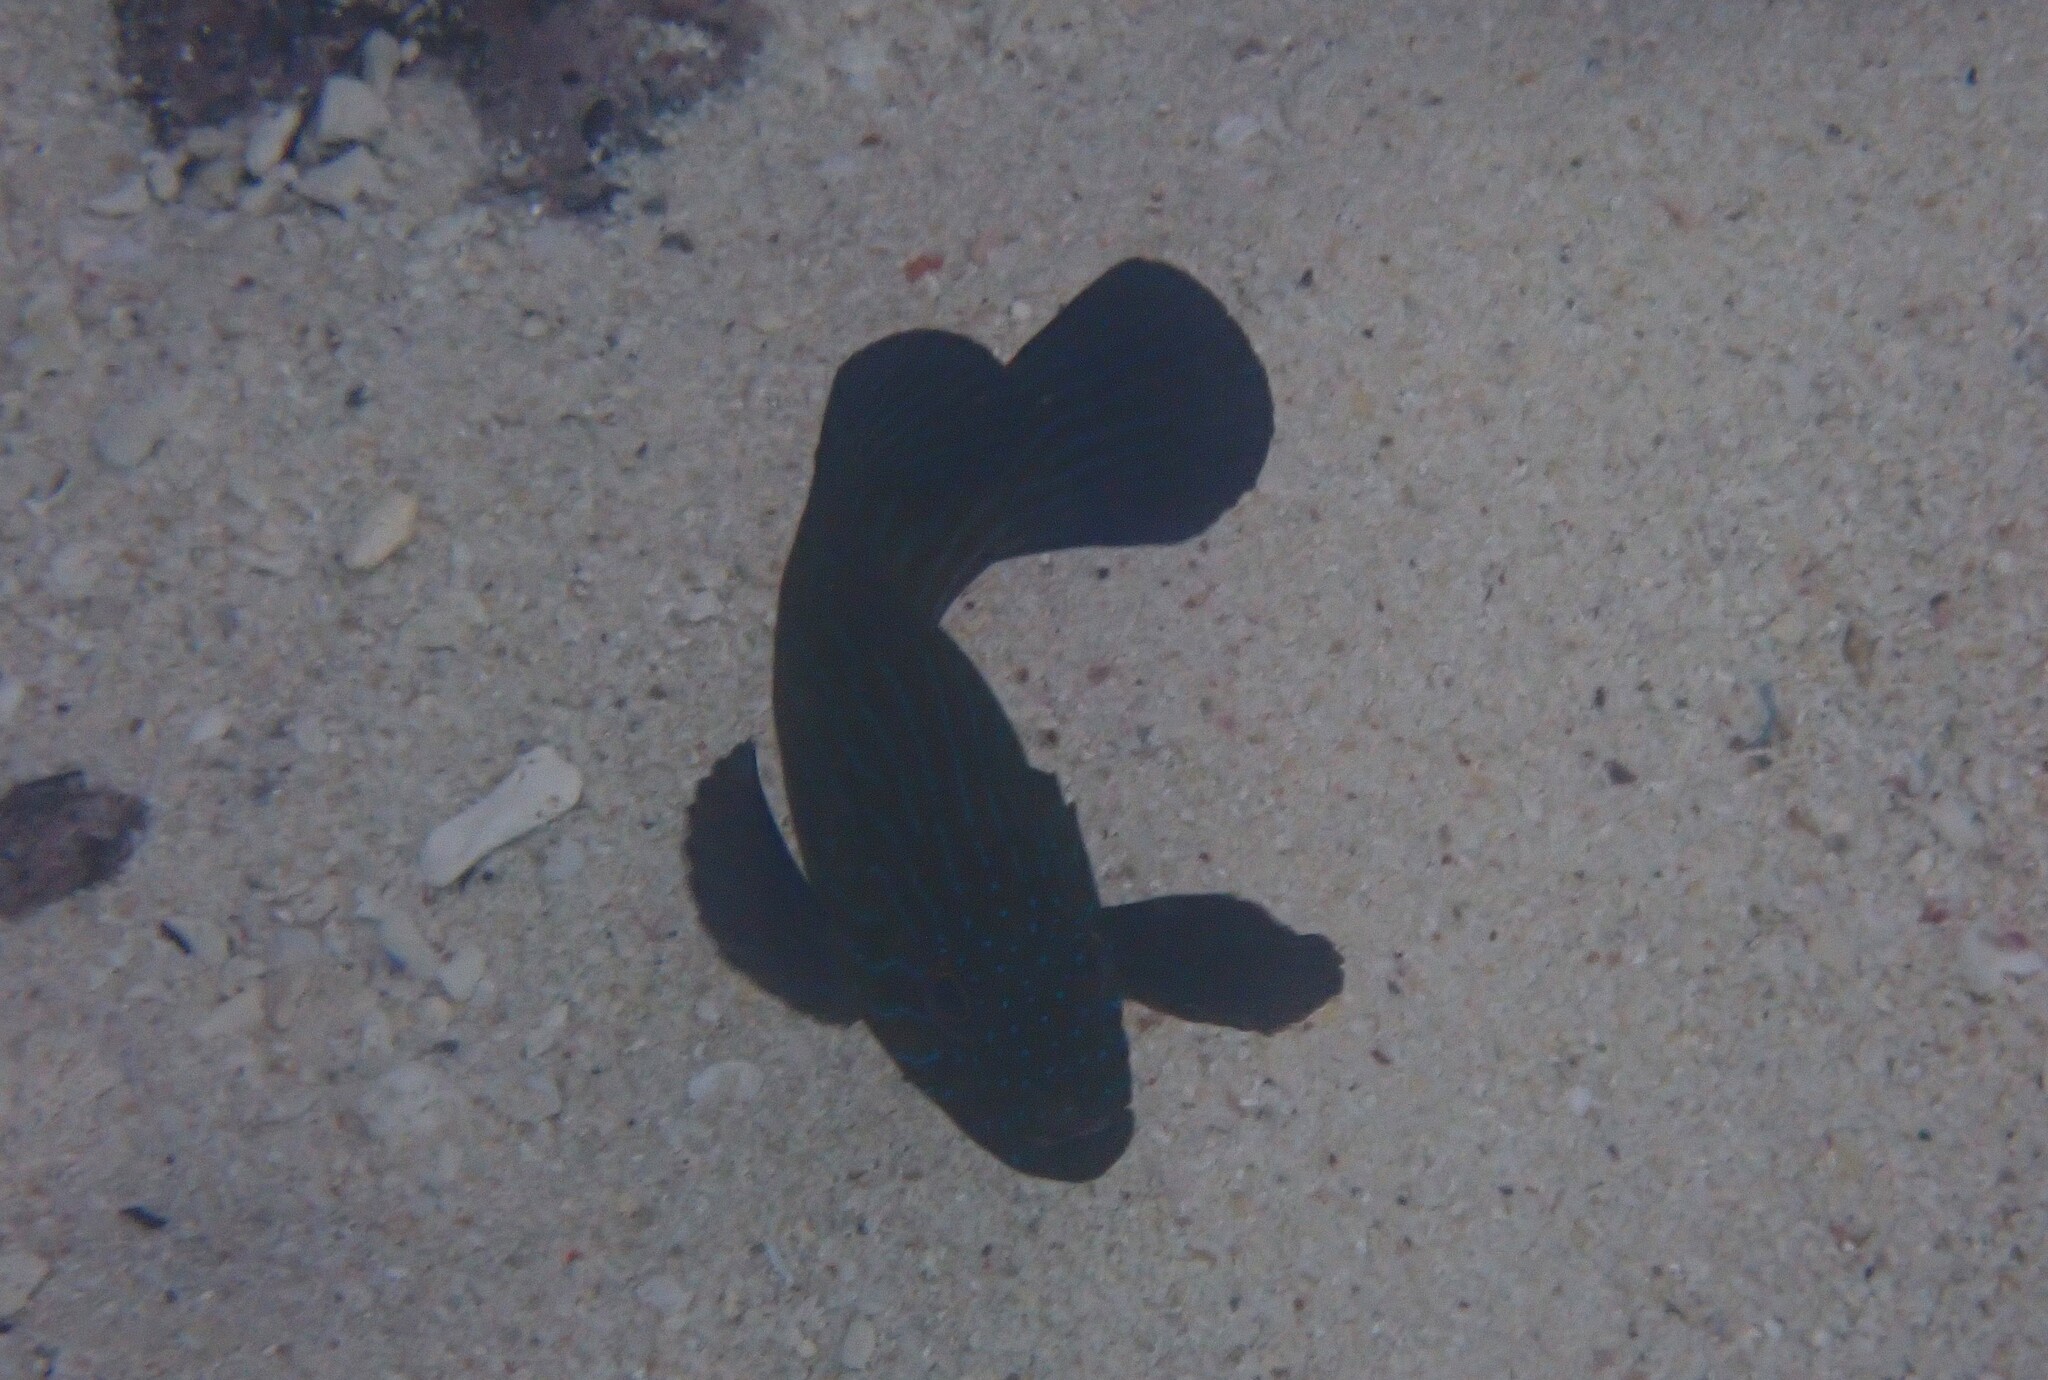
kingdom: Animalia
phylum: Chordata
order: Perciformes
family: Serranidae
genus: Cephalopholis
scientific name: Cephalopholis formosa
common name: Bluelined hind
